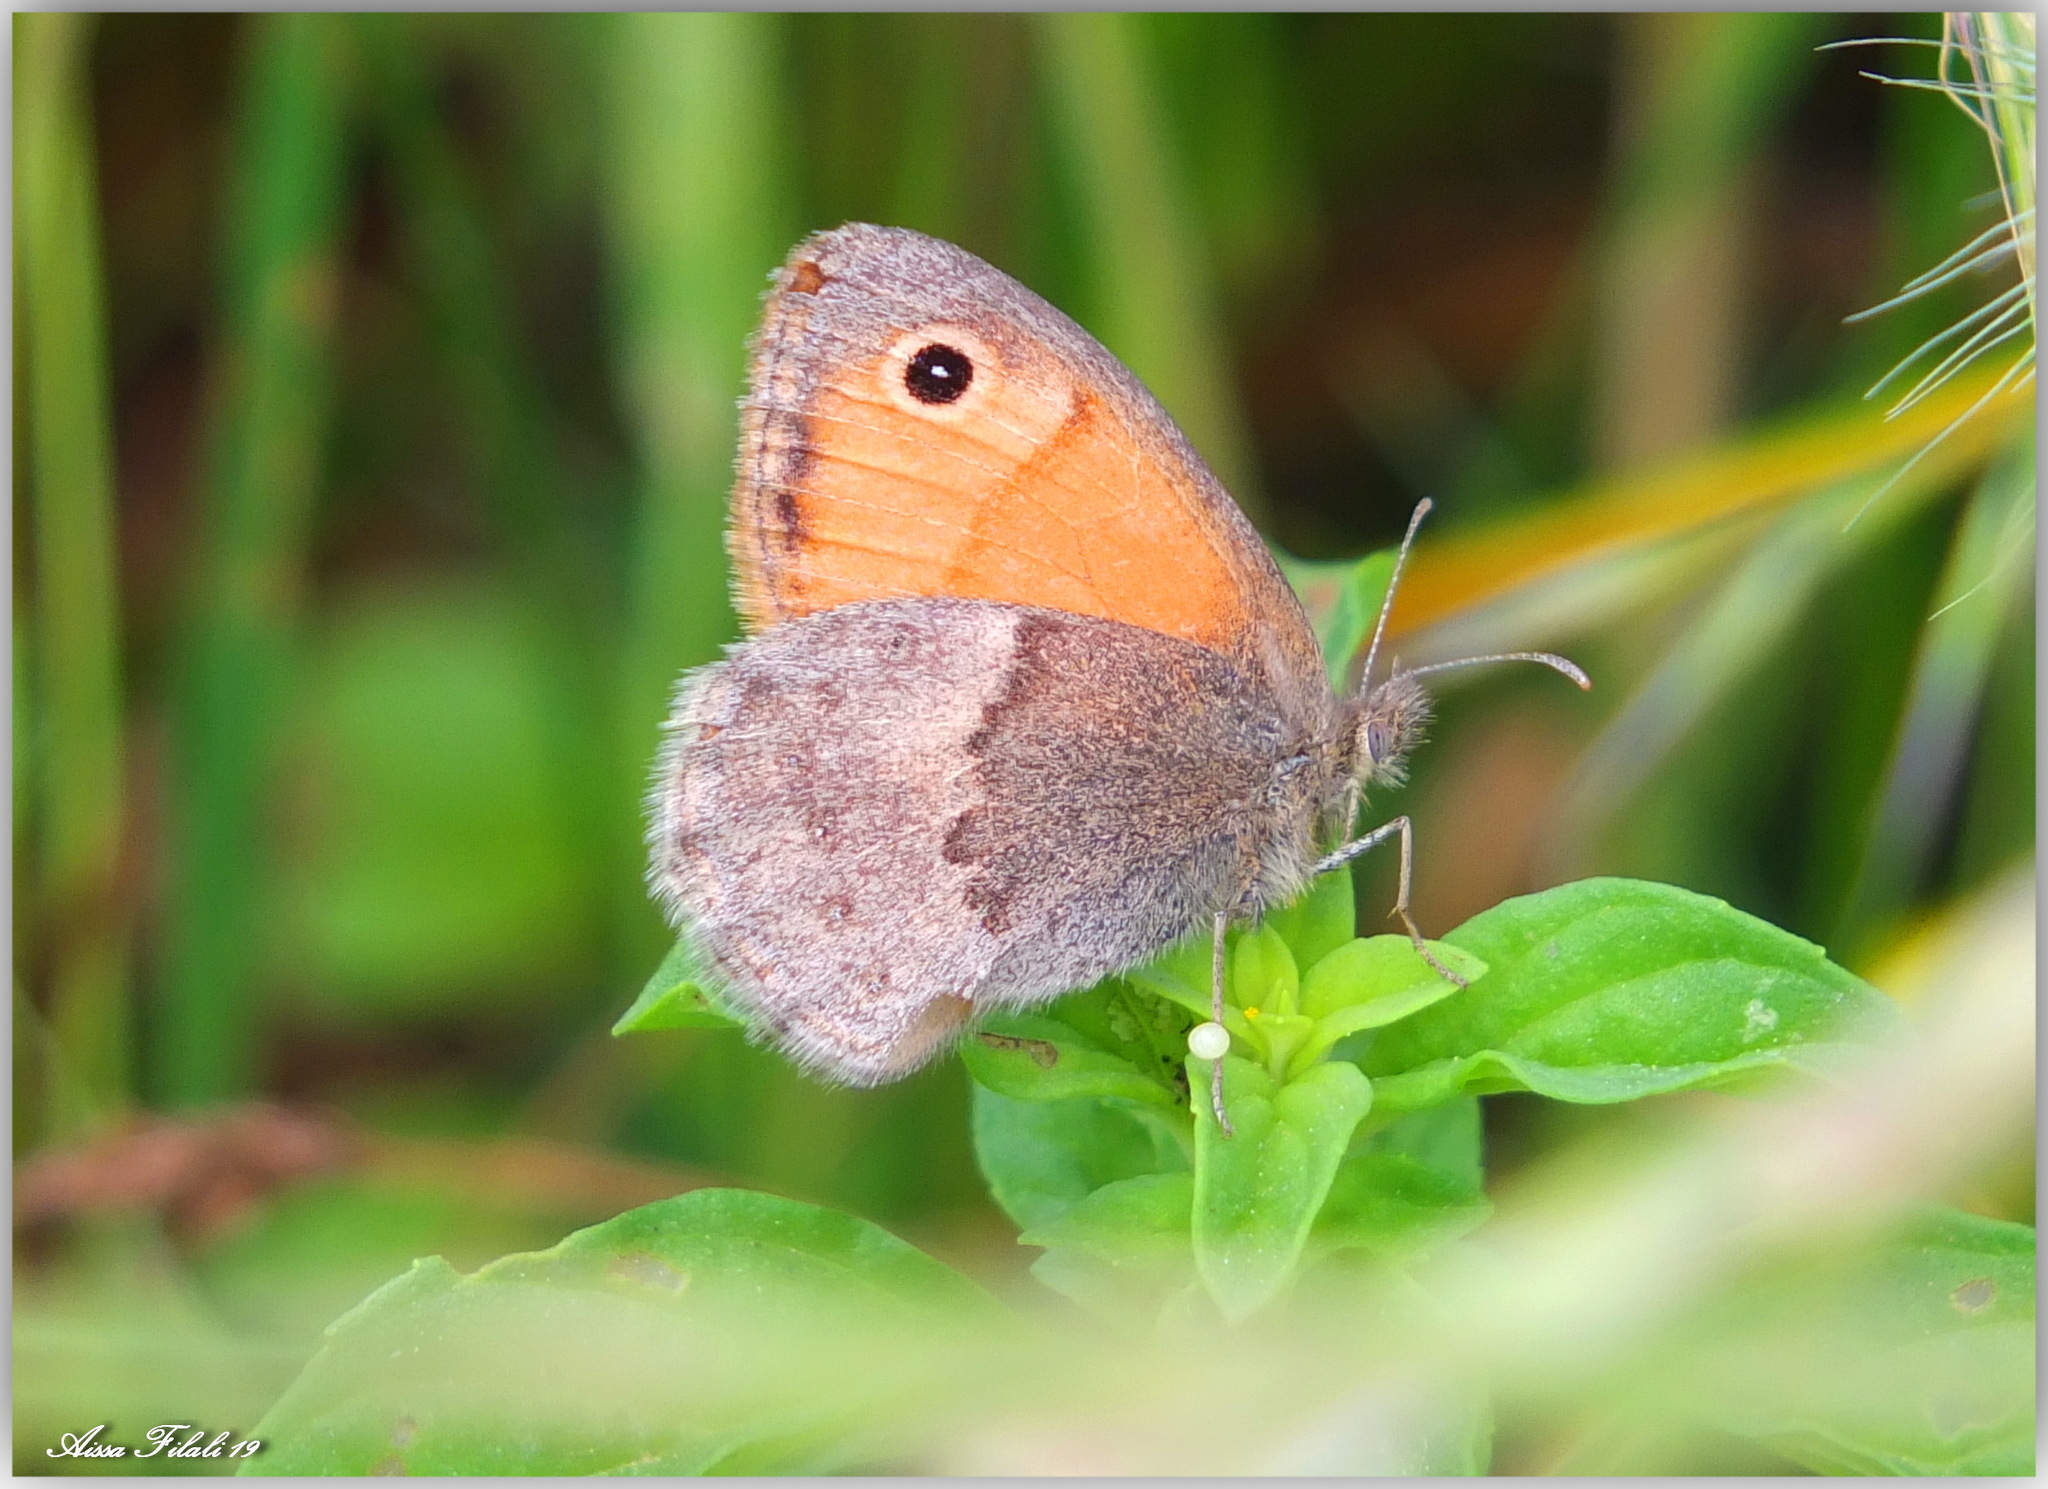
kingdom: Animalia
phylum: Arthropoda
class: Insecta
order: Lepidoptera
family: Nymphalidae
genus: Coenonympha
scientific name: Coenonympha pamphilus
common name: Small heath
